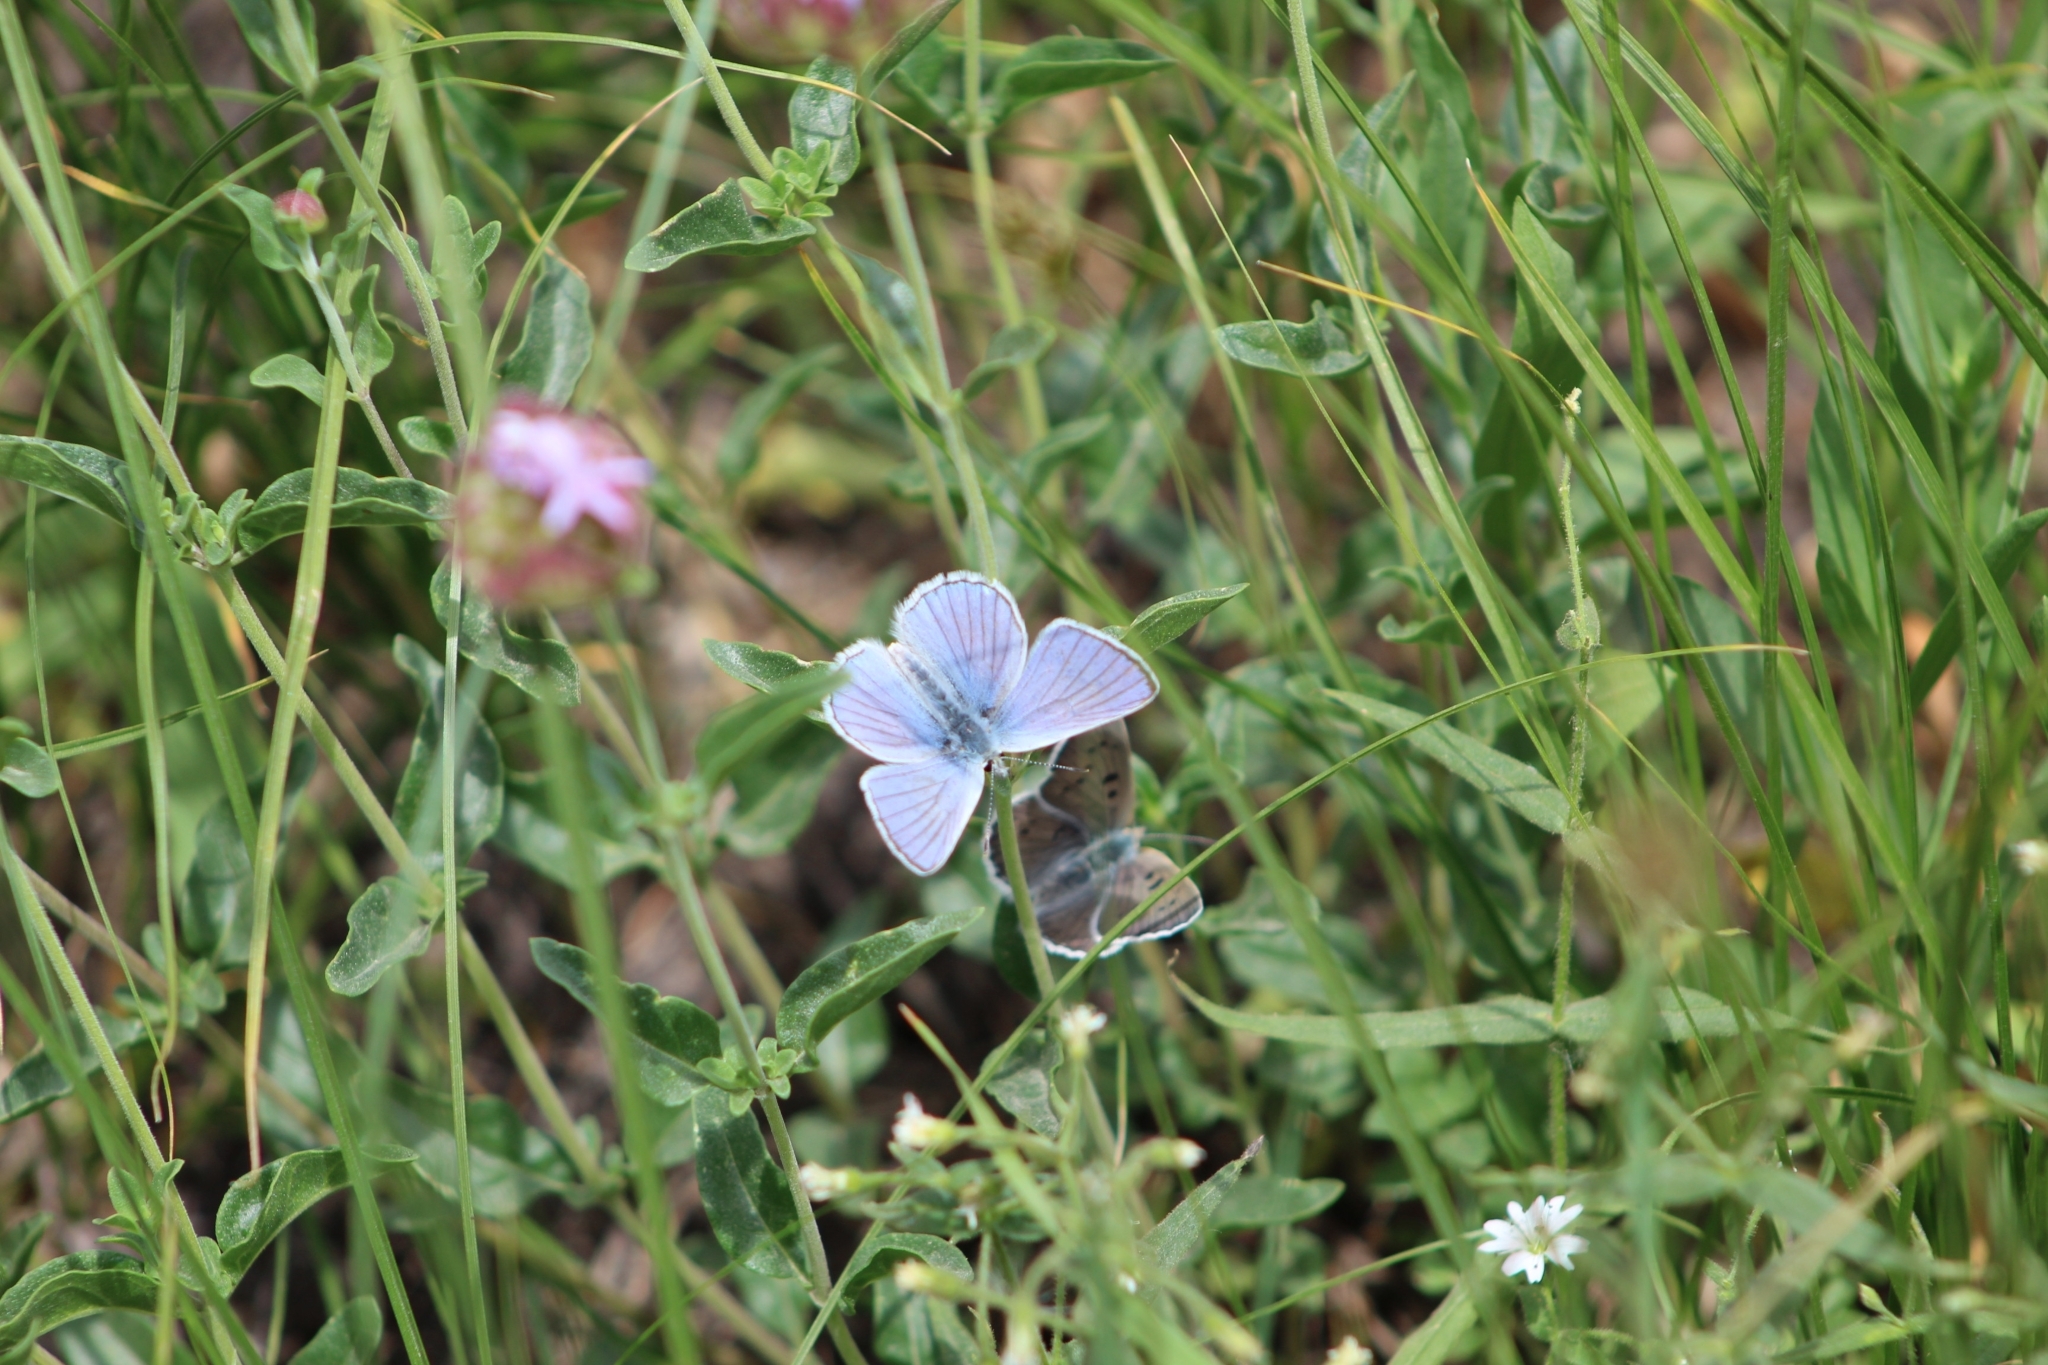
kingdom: Animalia
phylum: Arthropoda
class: Insecta
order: Lepidoptera
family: Lycaenidae
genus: Tharsalea
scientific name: Tharsalea heteronea
